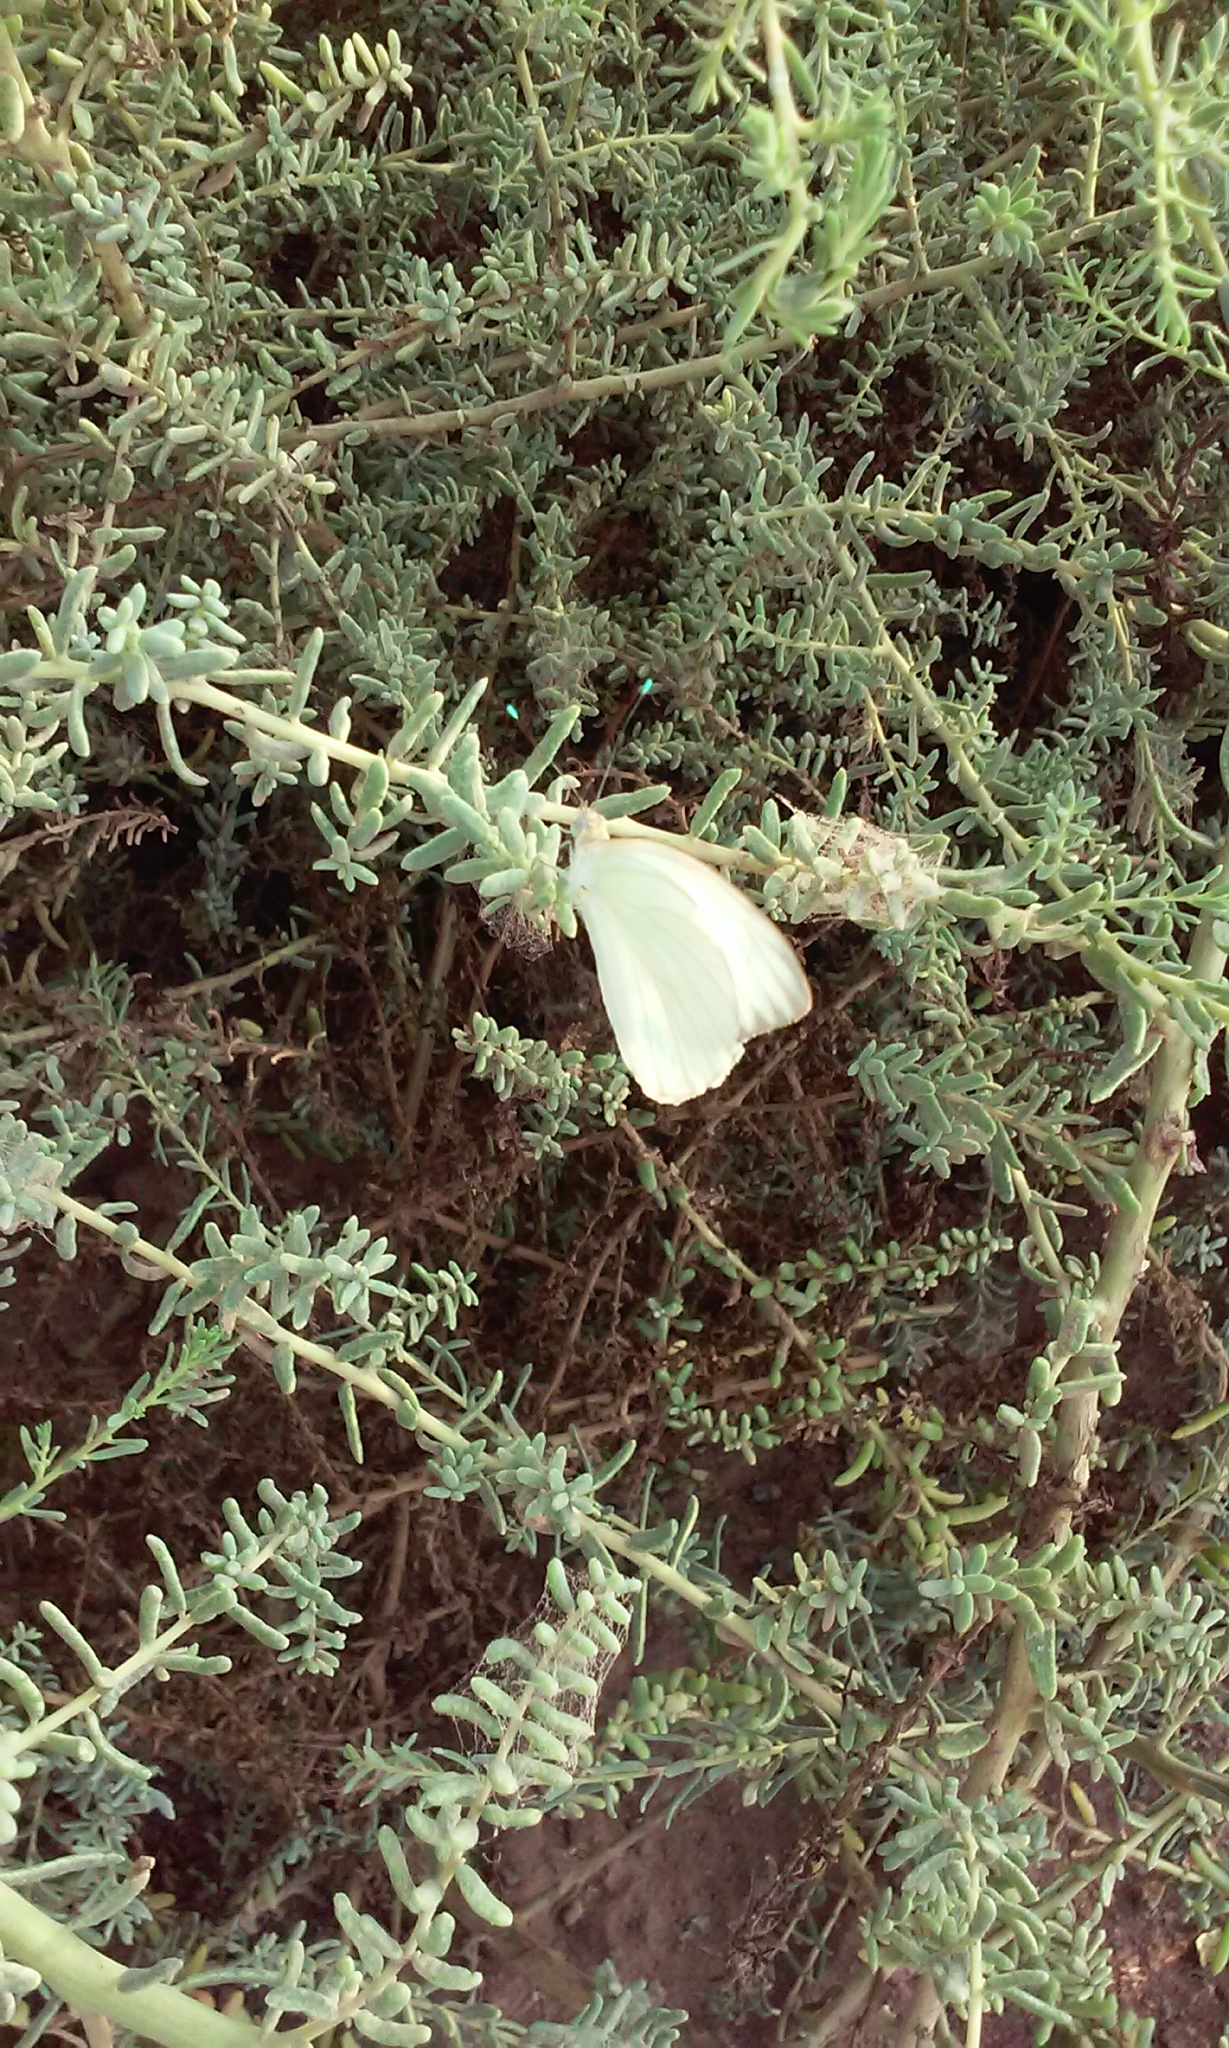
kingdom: Animalia
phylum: Arthropoda
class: Insecta
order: Lepidoptera
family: Pieridae
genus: Ascia
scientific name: Ascia monuste
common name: Great southern white
